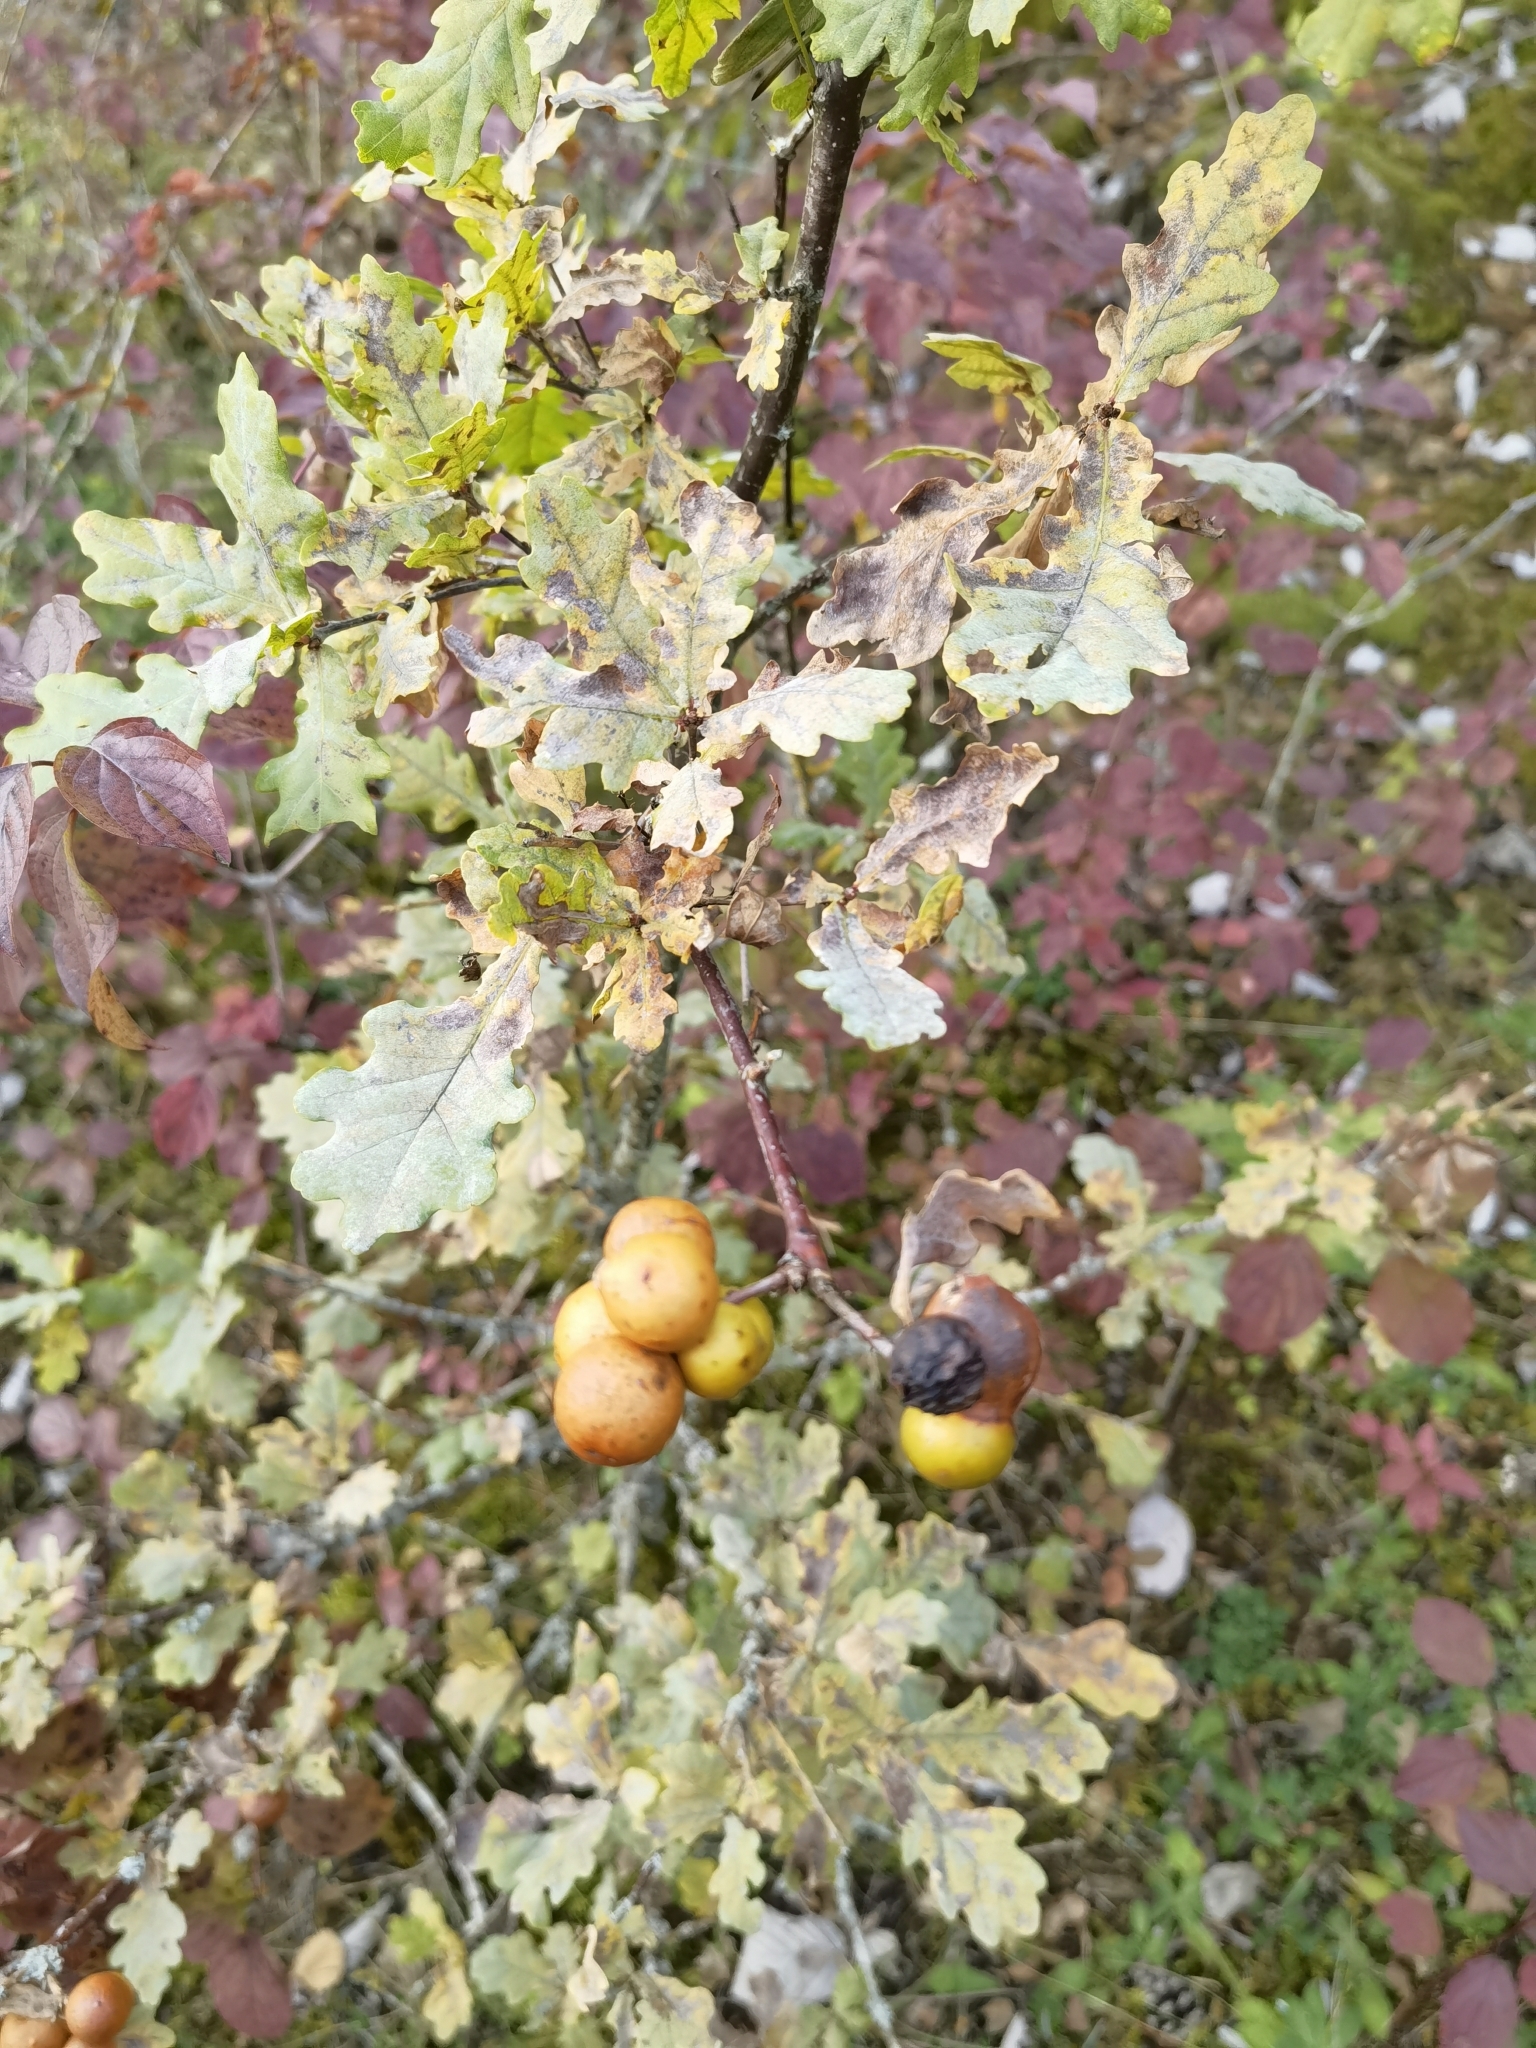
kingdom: Animalia
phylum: Arthropoda
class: Insecta
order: Hymenoptera
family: Cynipidae
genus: Andricus
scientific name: Andricus kollari
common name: Marble gall
